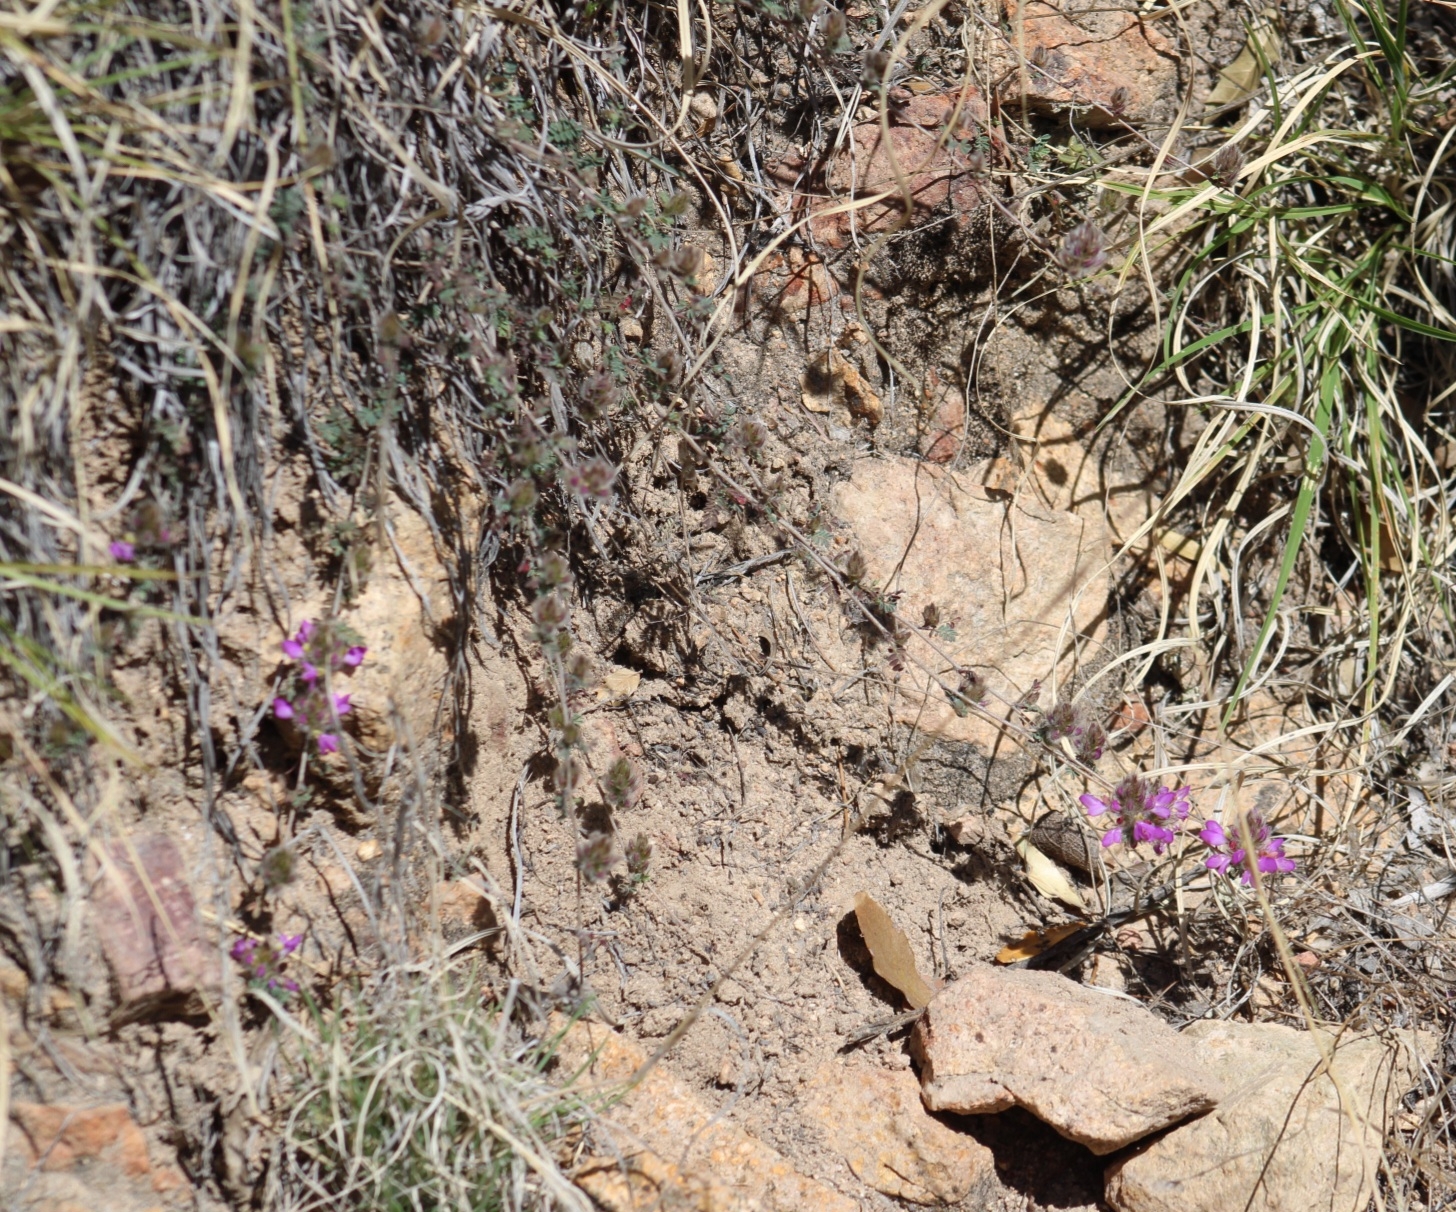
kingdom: Plantae
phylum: Tracheophyta
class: Magnoliopsida
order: Fabales
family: Fabaceae
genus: Dalea
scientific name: Dalea versicolor
